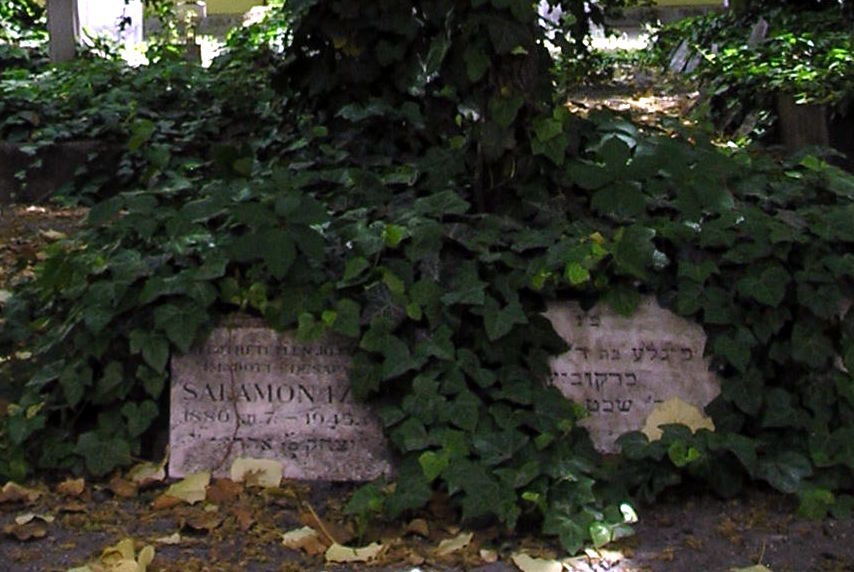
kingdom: Plantae
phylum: Tracheophyta
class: Magnoliopsida
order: Apiales
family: Araliaceae
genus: Hedera
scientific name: Hedera helix
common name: Ivy
